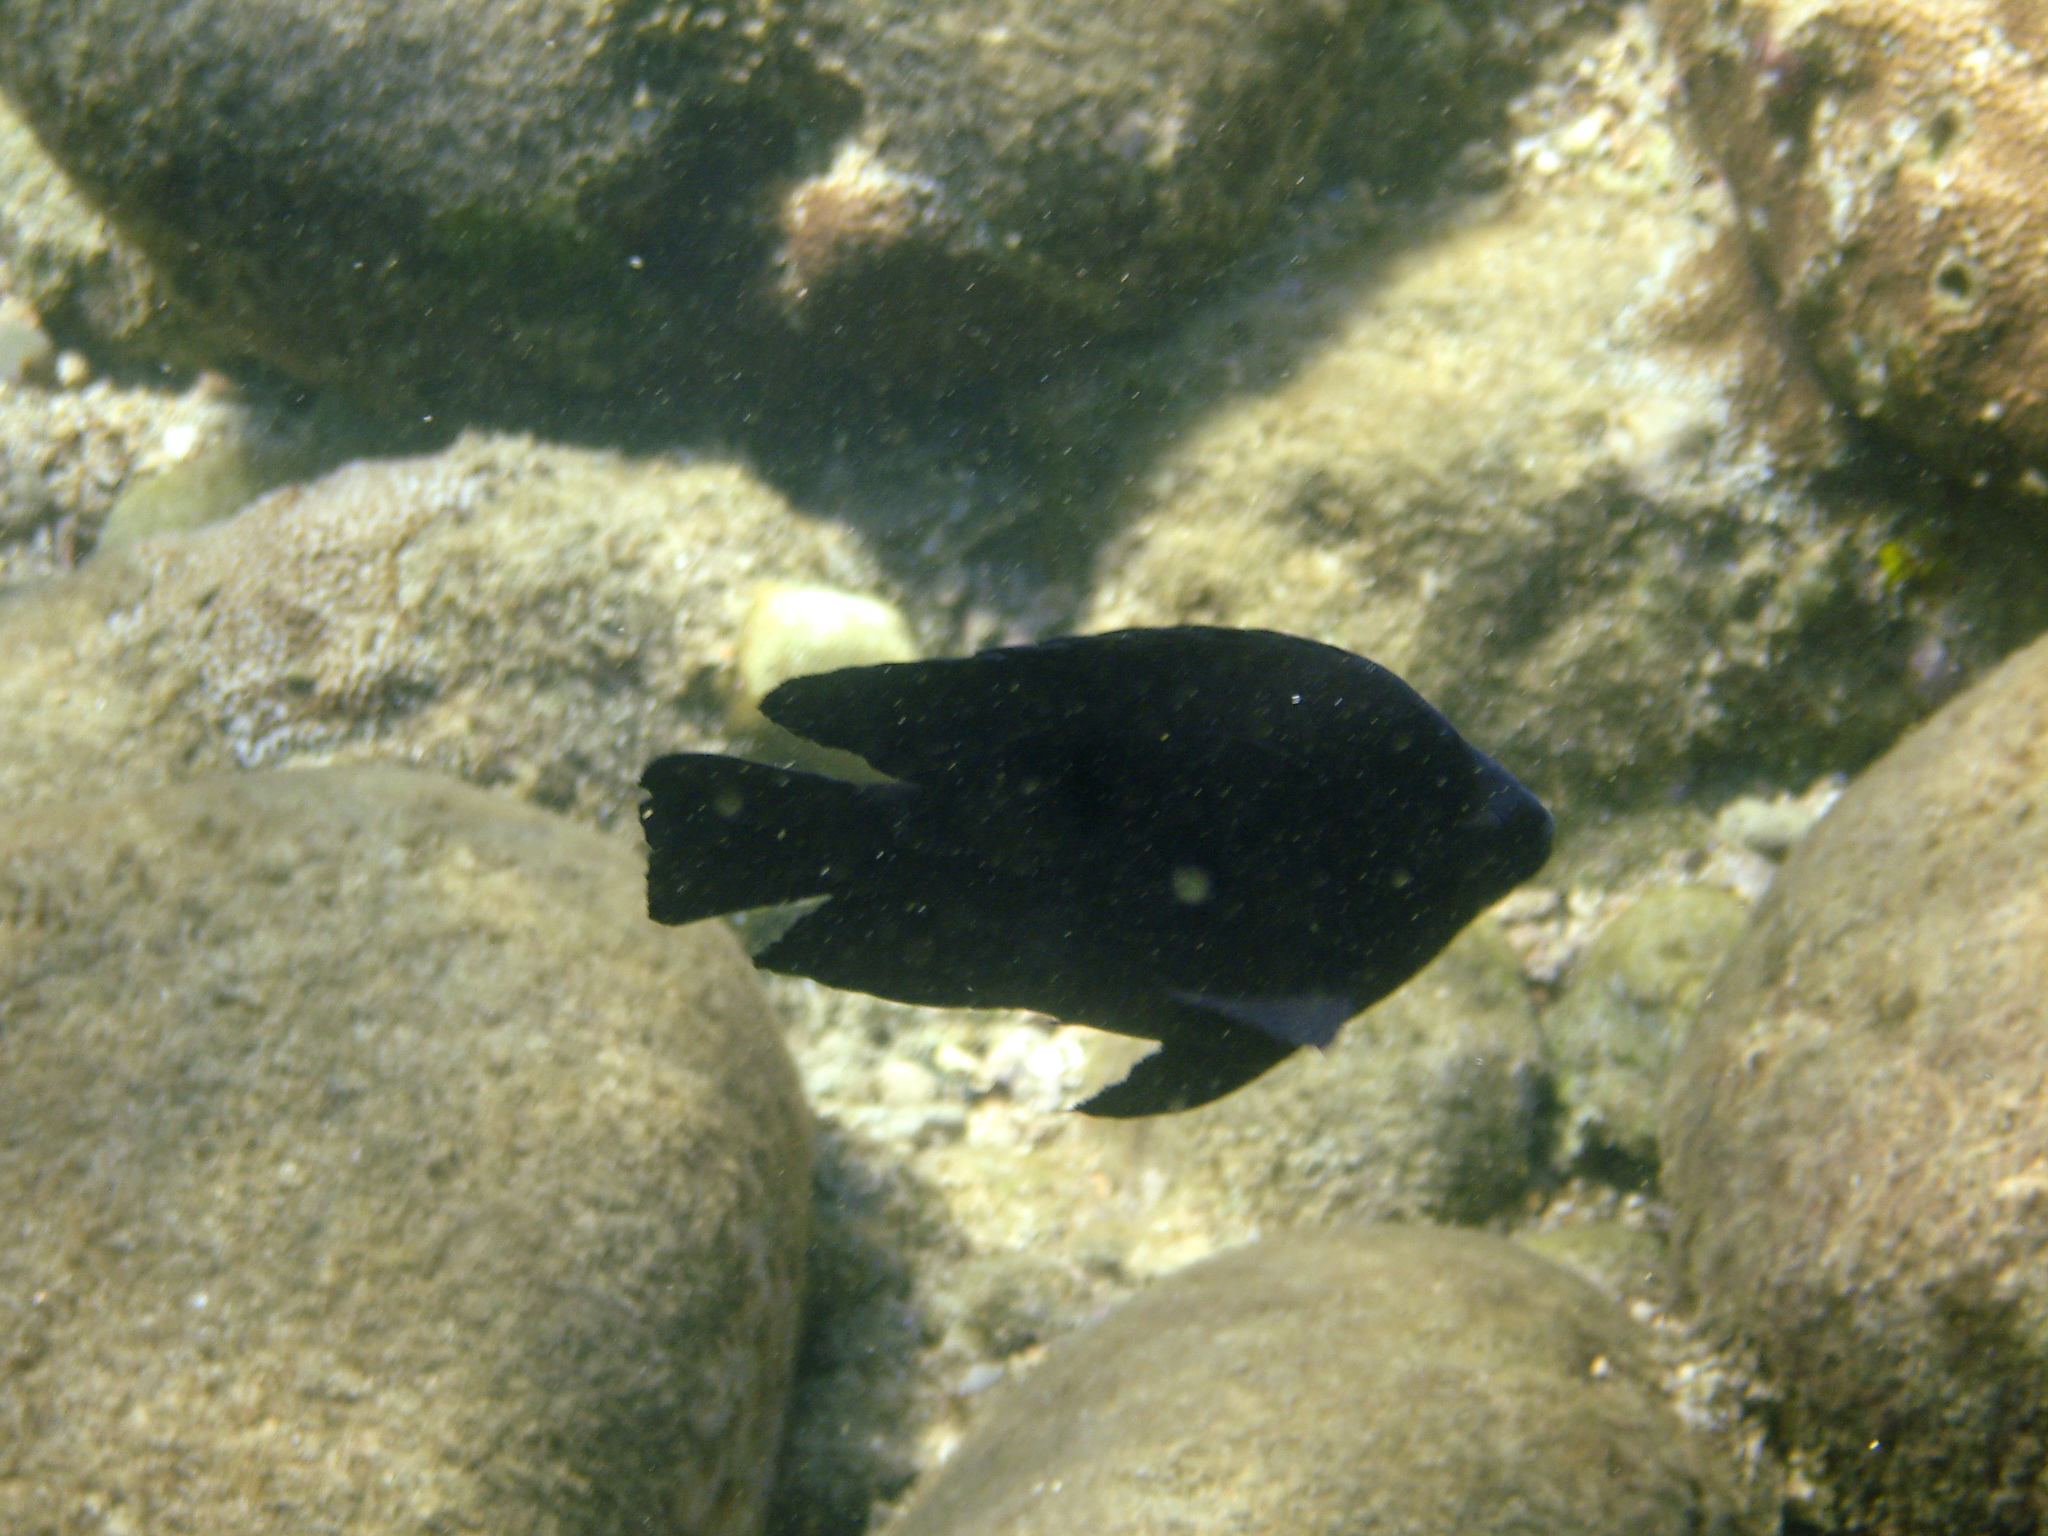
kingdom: Animalia
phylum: Chordata
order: Perciformes
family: Pomacentridae
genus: Neoglyphidodon
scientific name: Neoglyphidodon melas
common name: Black damsel
